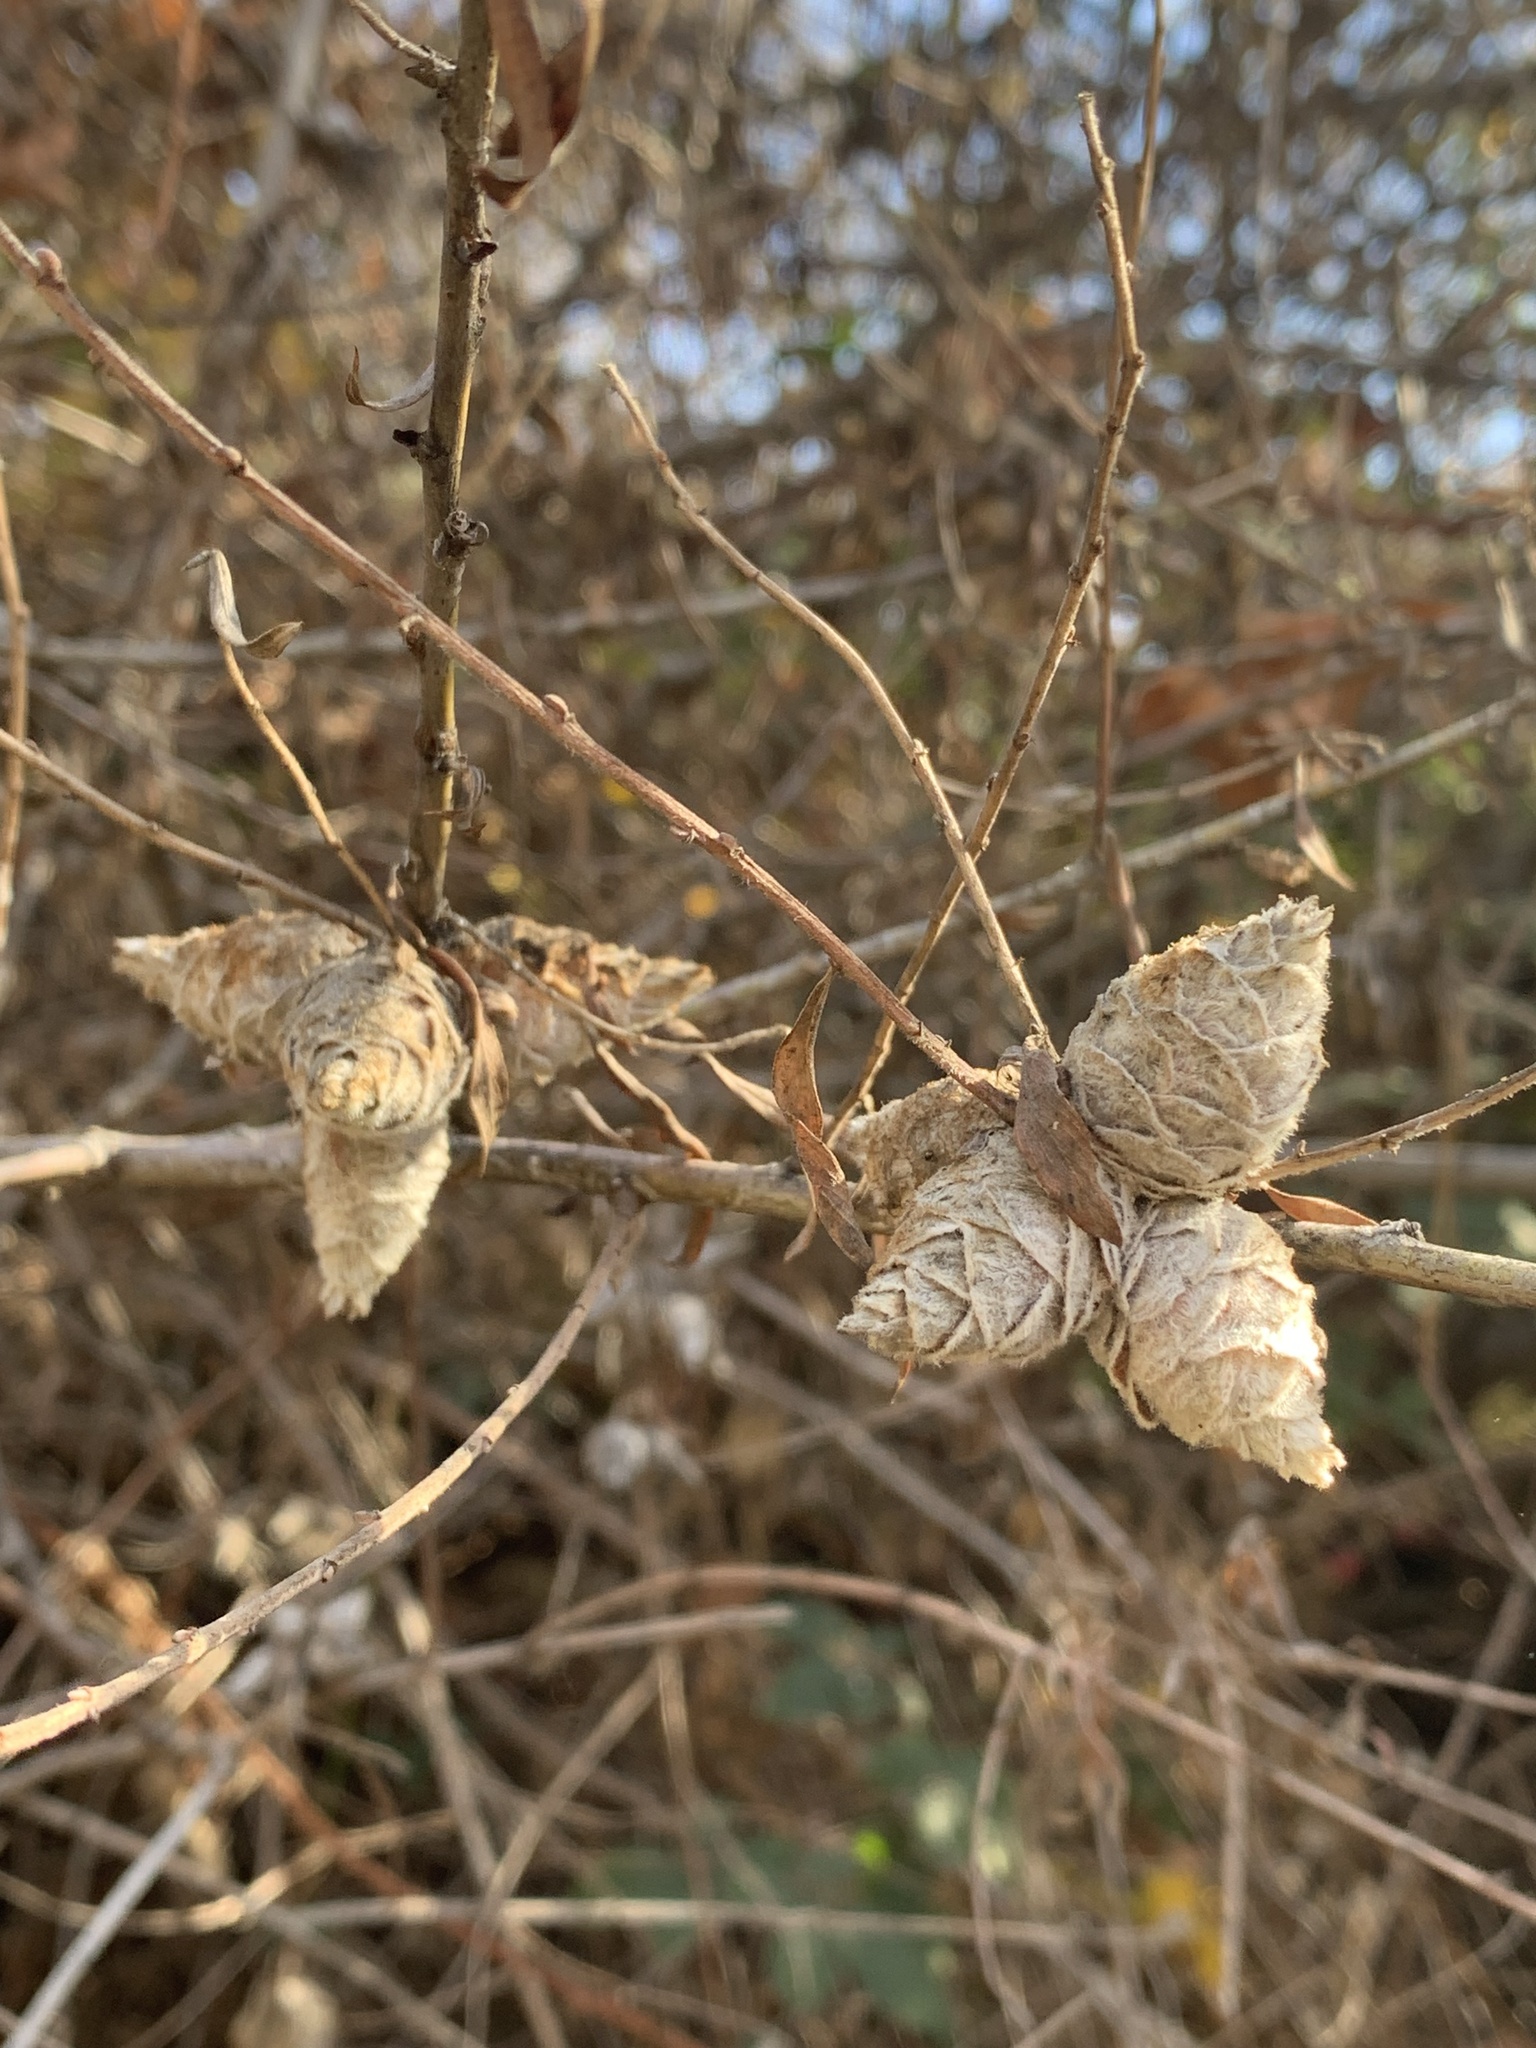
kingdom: Animalia
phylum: Arthropoda
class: Insecta
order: Diptera
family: Cecidomyiidae
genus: Rabdophaga
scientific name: Rabdophaga strobiloides
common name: Willow pinecone gall midge
